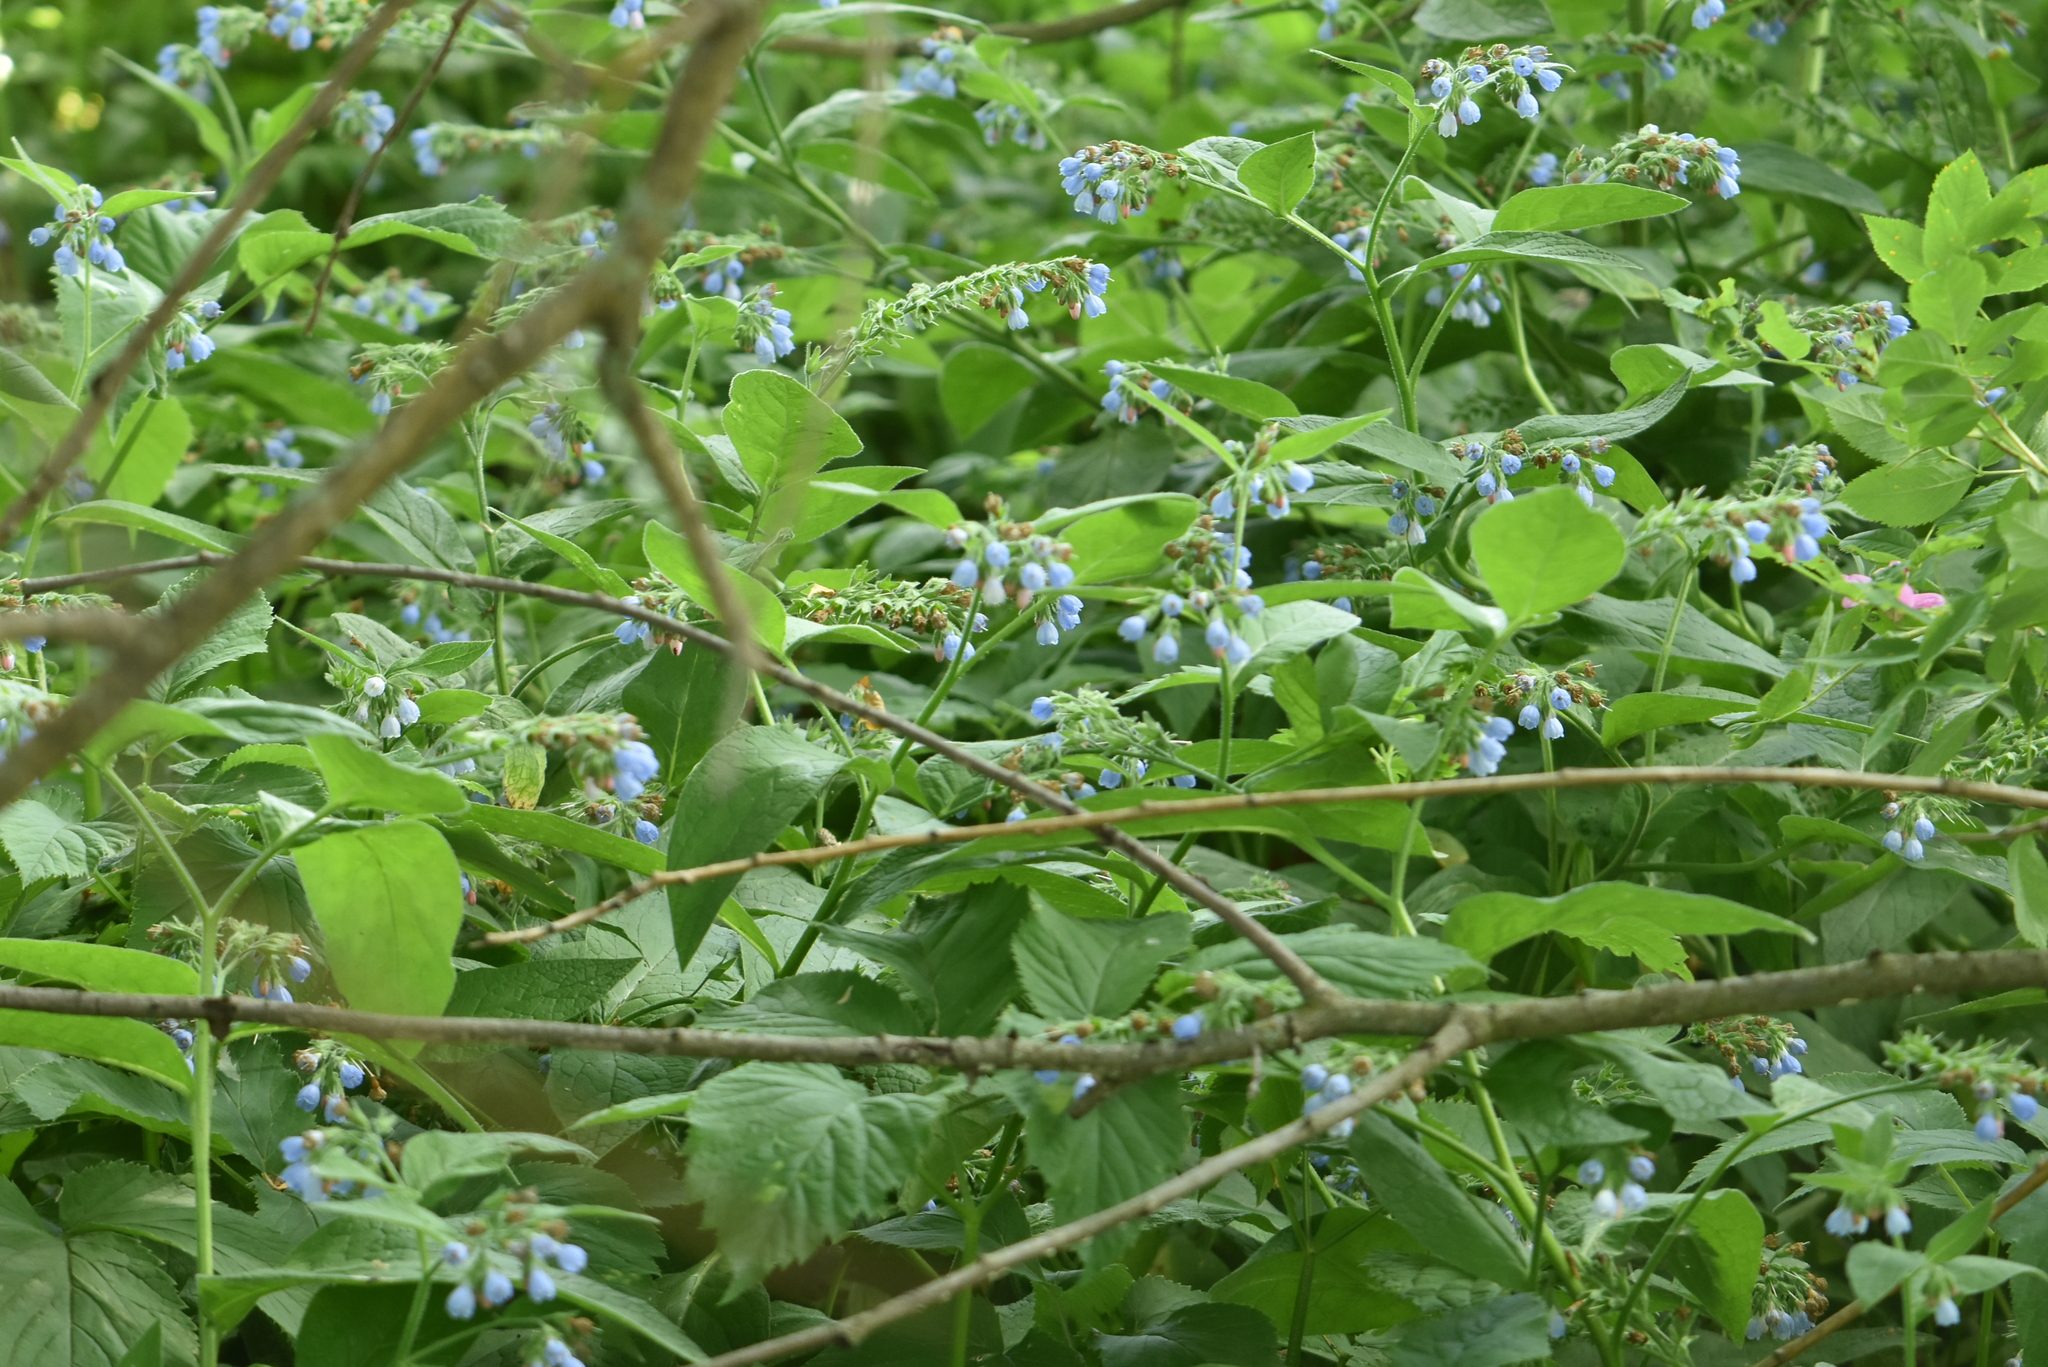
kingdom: Plantae
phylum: Tracheophyta
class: Magnoliopsida
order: Boraginales
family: Boraginaceae
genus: Symphytum
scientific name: Symphytum caucasicum
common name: Caucasian comfrey
